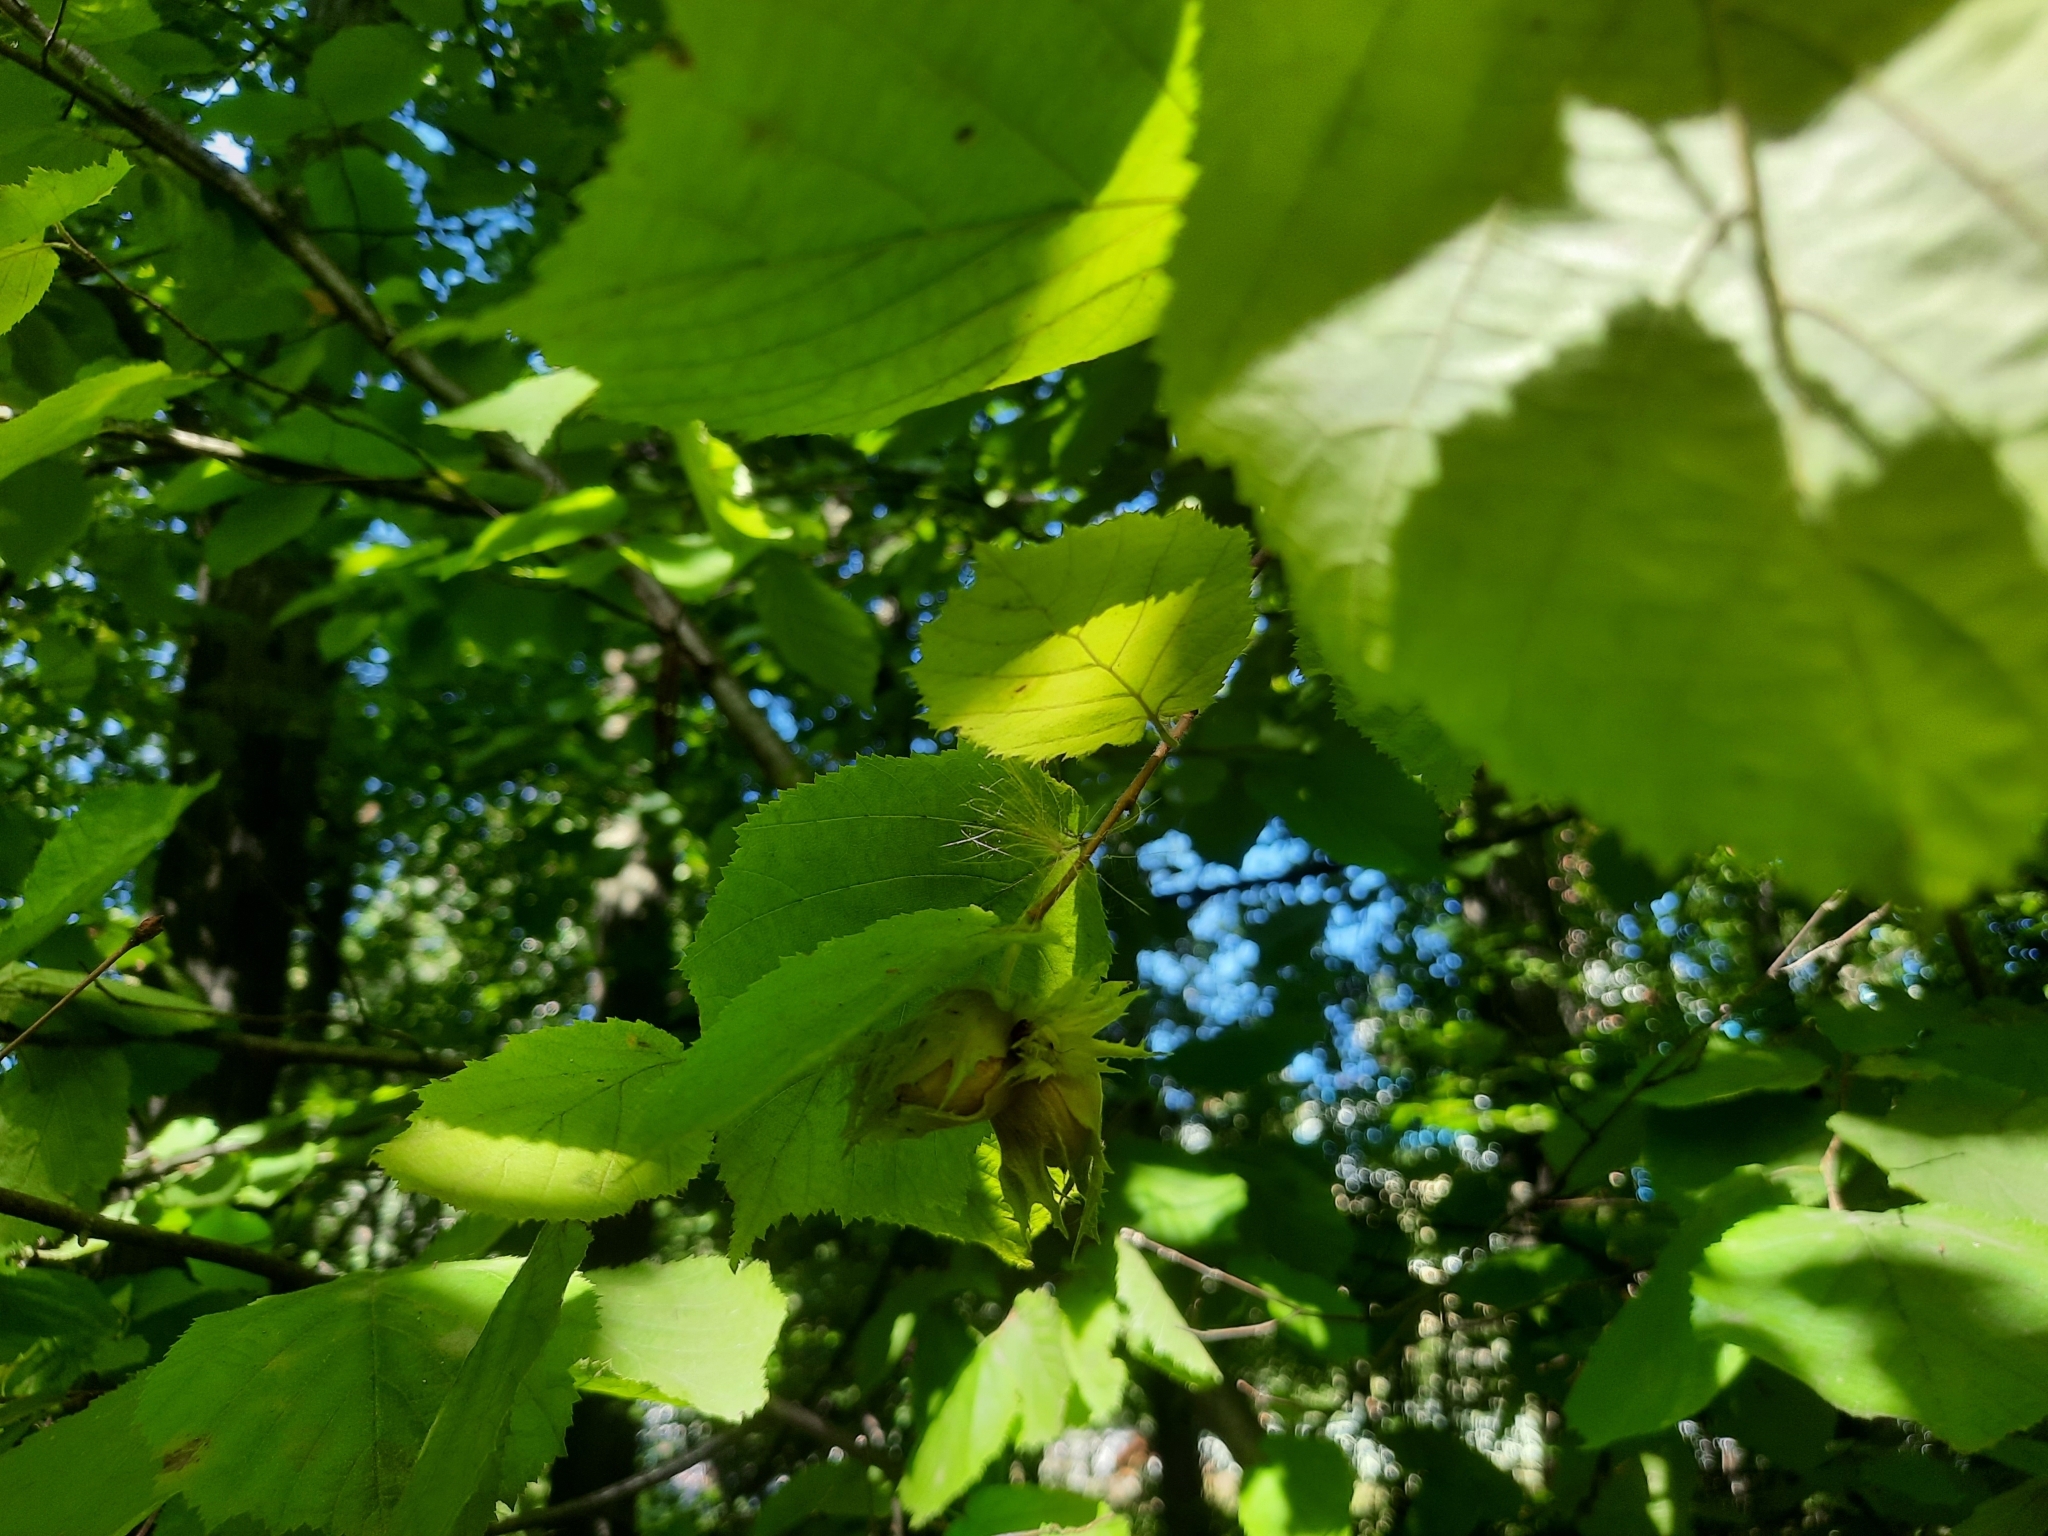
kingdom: Plantae
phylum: Tracheophyta
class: Magnoliopsida
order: Fagales
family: Betulaceae
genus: Corylus
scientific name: Corylus avellana
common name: European hazel
